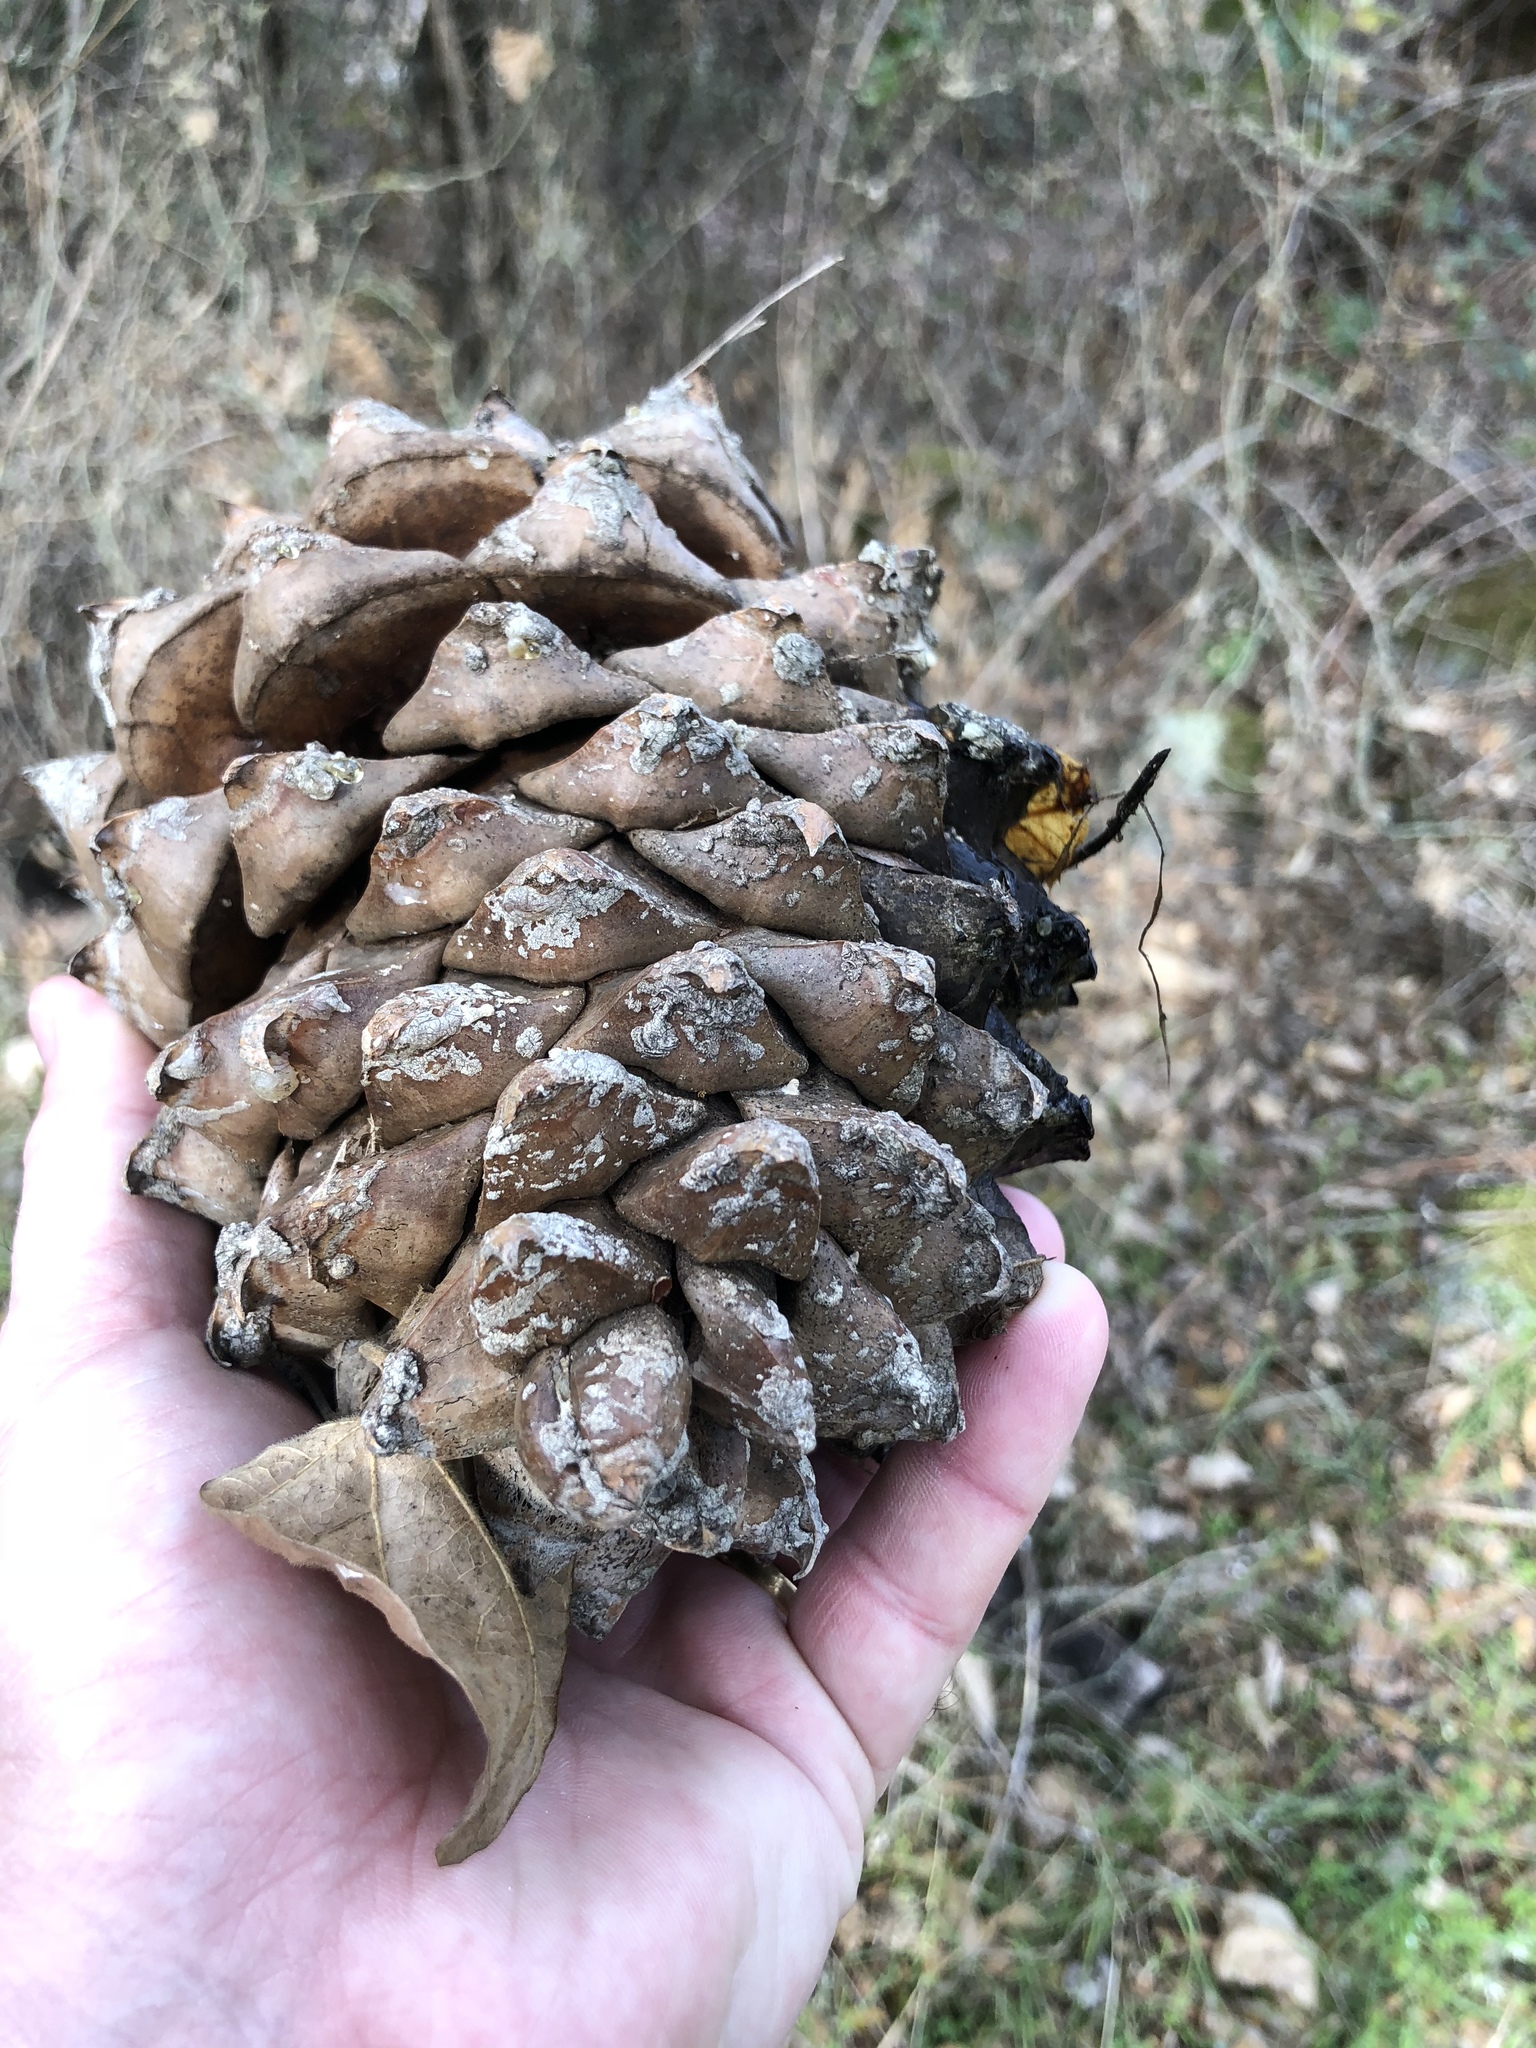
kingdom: Plantae
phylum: Tracheophyta
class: Pinopsida
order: Pinales
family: Pinaceae
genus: Pinus
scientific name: Pinus sabiniana
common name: Bull pine
